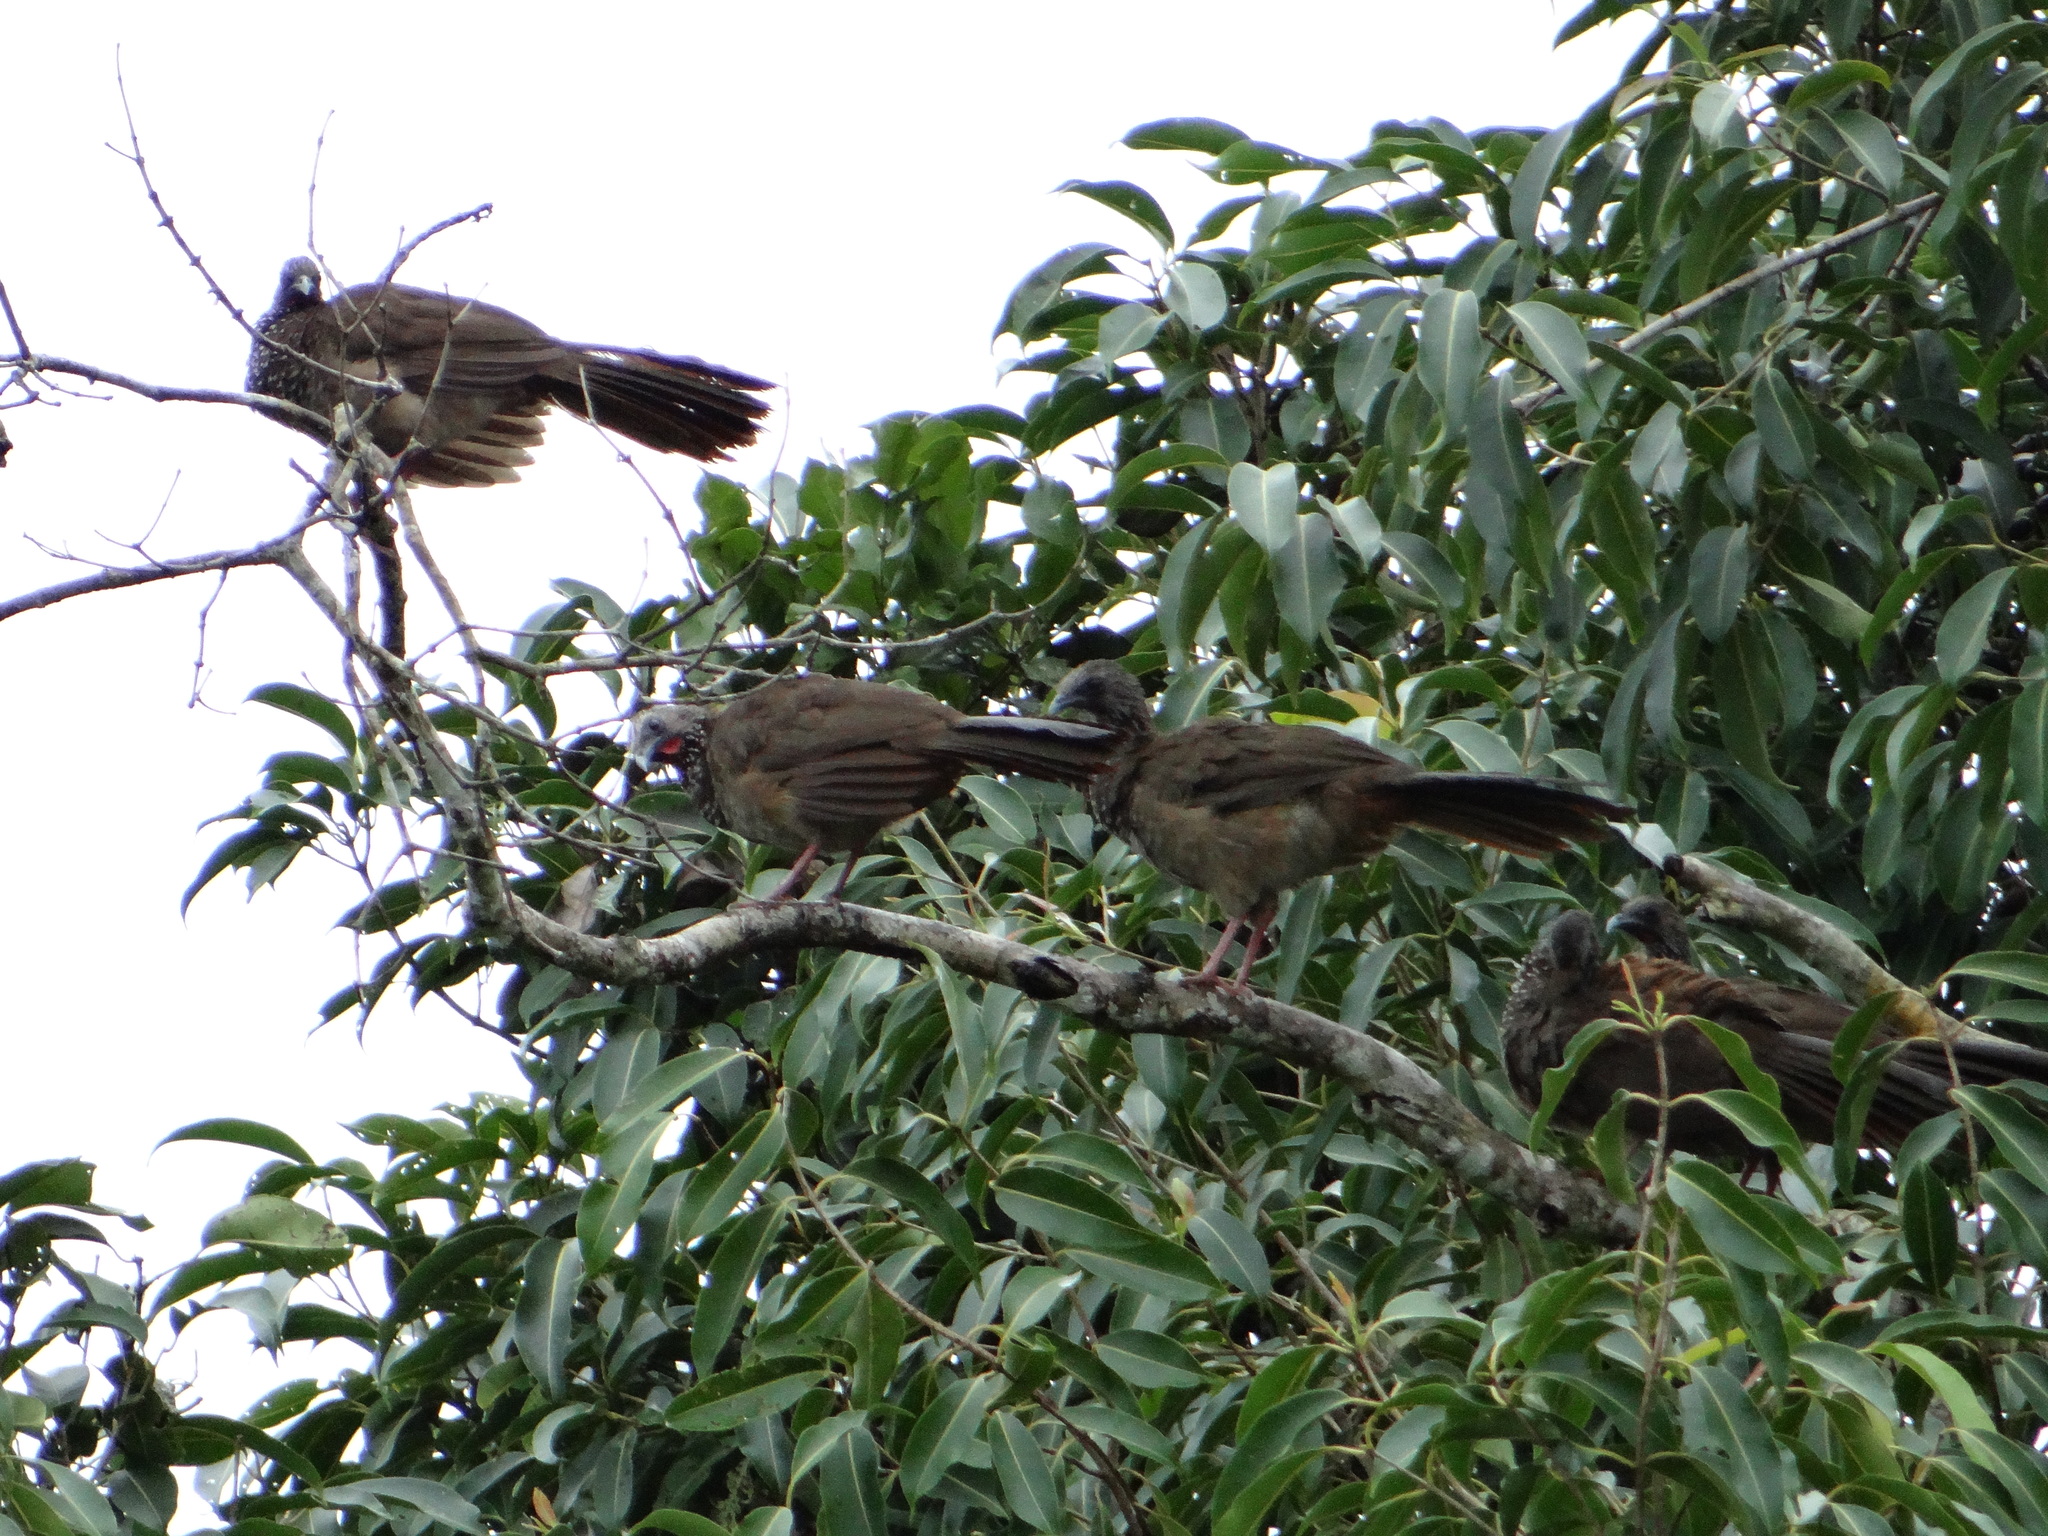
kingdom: Animalia
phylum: Chordata
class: Aves
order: Galliformes
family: Cracidae
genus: Ortalis
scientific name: Ortalis guttata
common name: Speckled chachalaca
